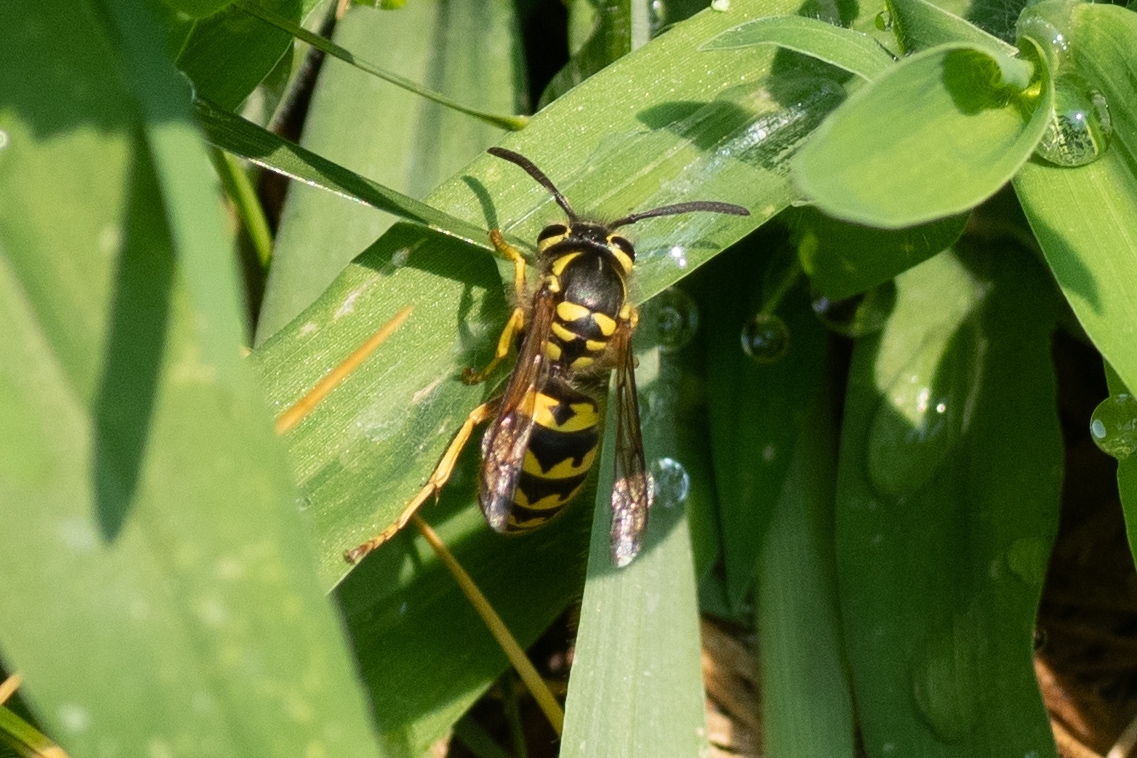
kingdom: Animalia
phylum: Arthropoda
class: Insecta
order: Hymenoptera
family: Vespidae
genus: Vespula
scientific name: Vespula pensylvanica
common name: Western yellowjacket
